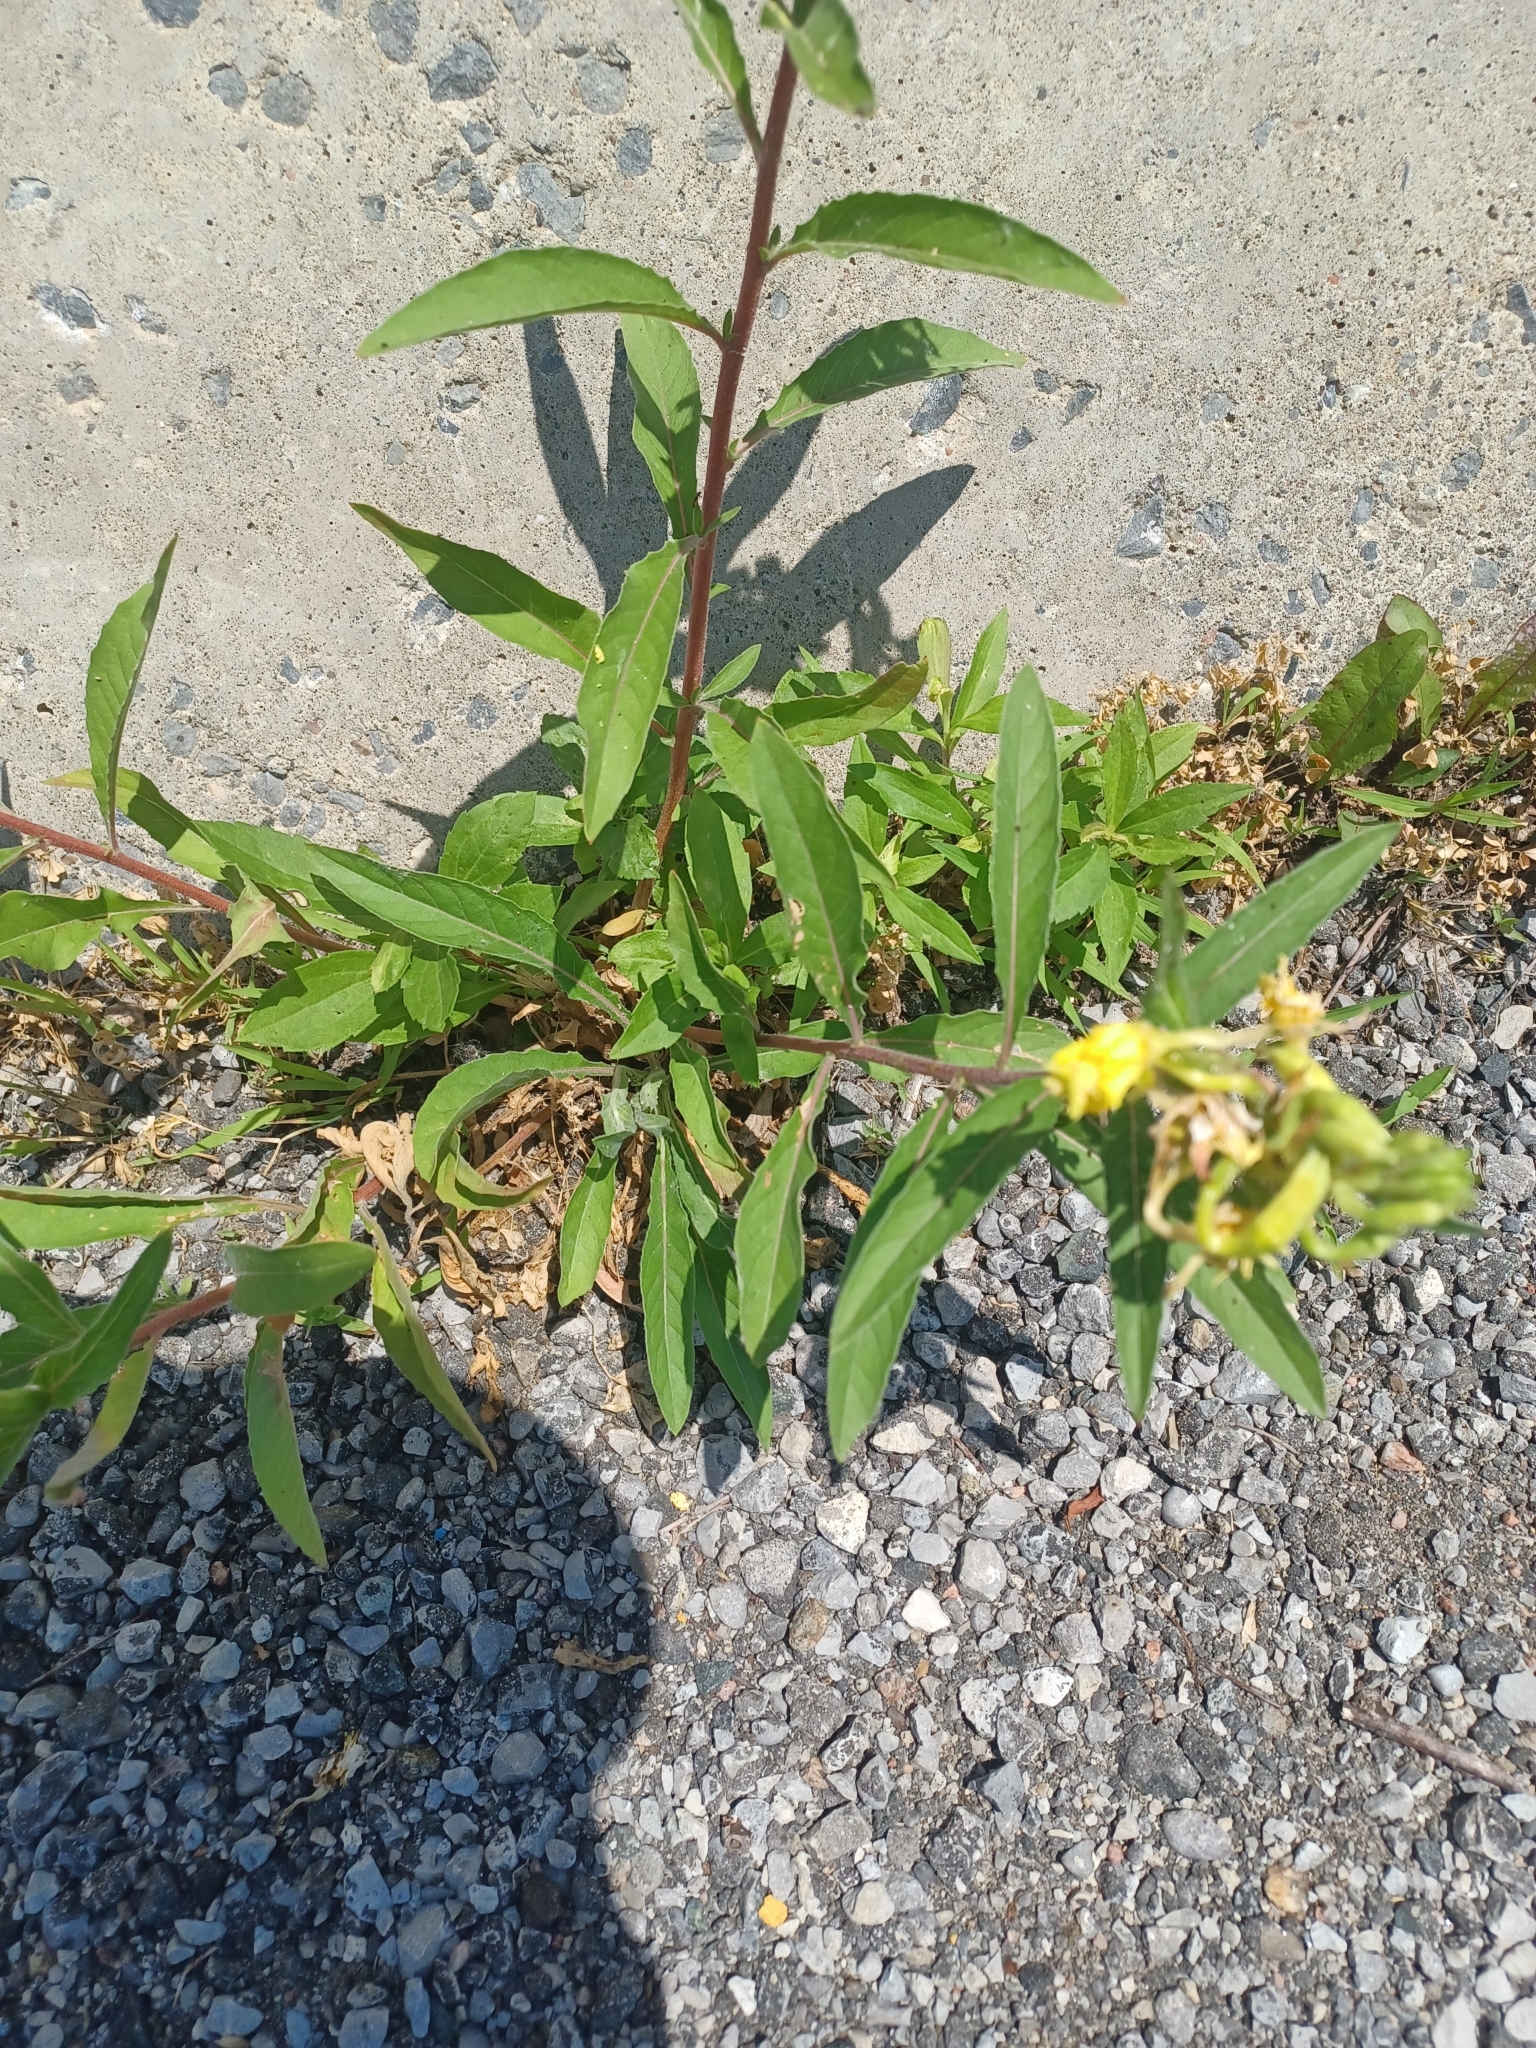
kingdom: Plantae
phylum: Tracheophyta
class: Magnoliopsida
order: Myrtales
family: Onagraceae
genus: Oenothera
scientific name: Oenothera parviflora
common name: Least evening-primrose
